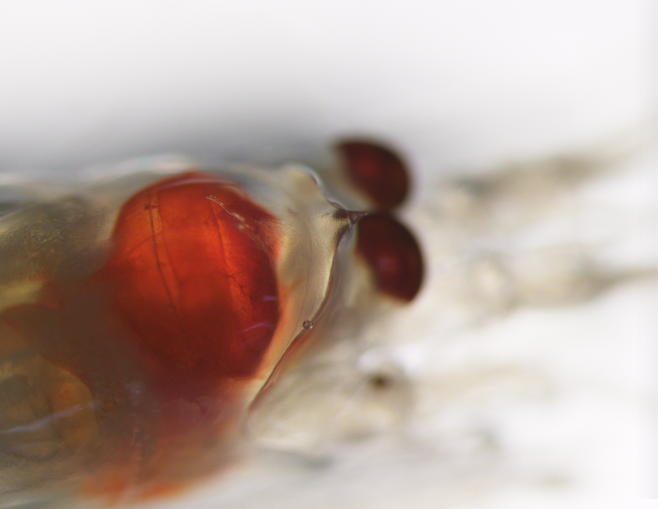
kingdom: Animalia
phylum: Arthropoda
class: Malacostraca
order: Mysida
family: Mysidae
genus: Boreomysis
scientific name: Boreomysis arctica
